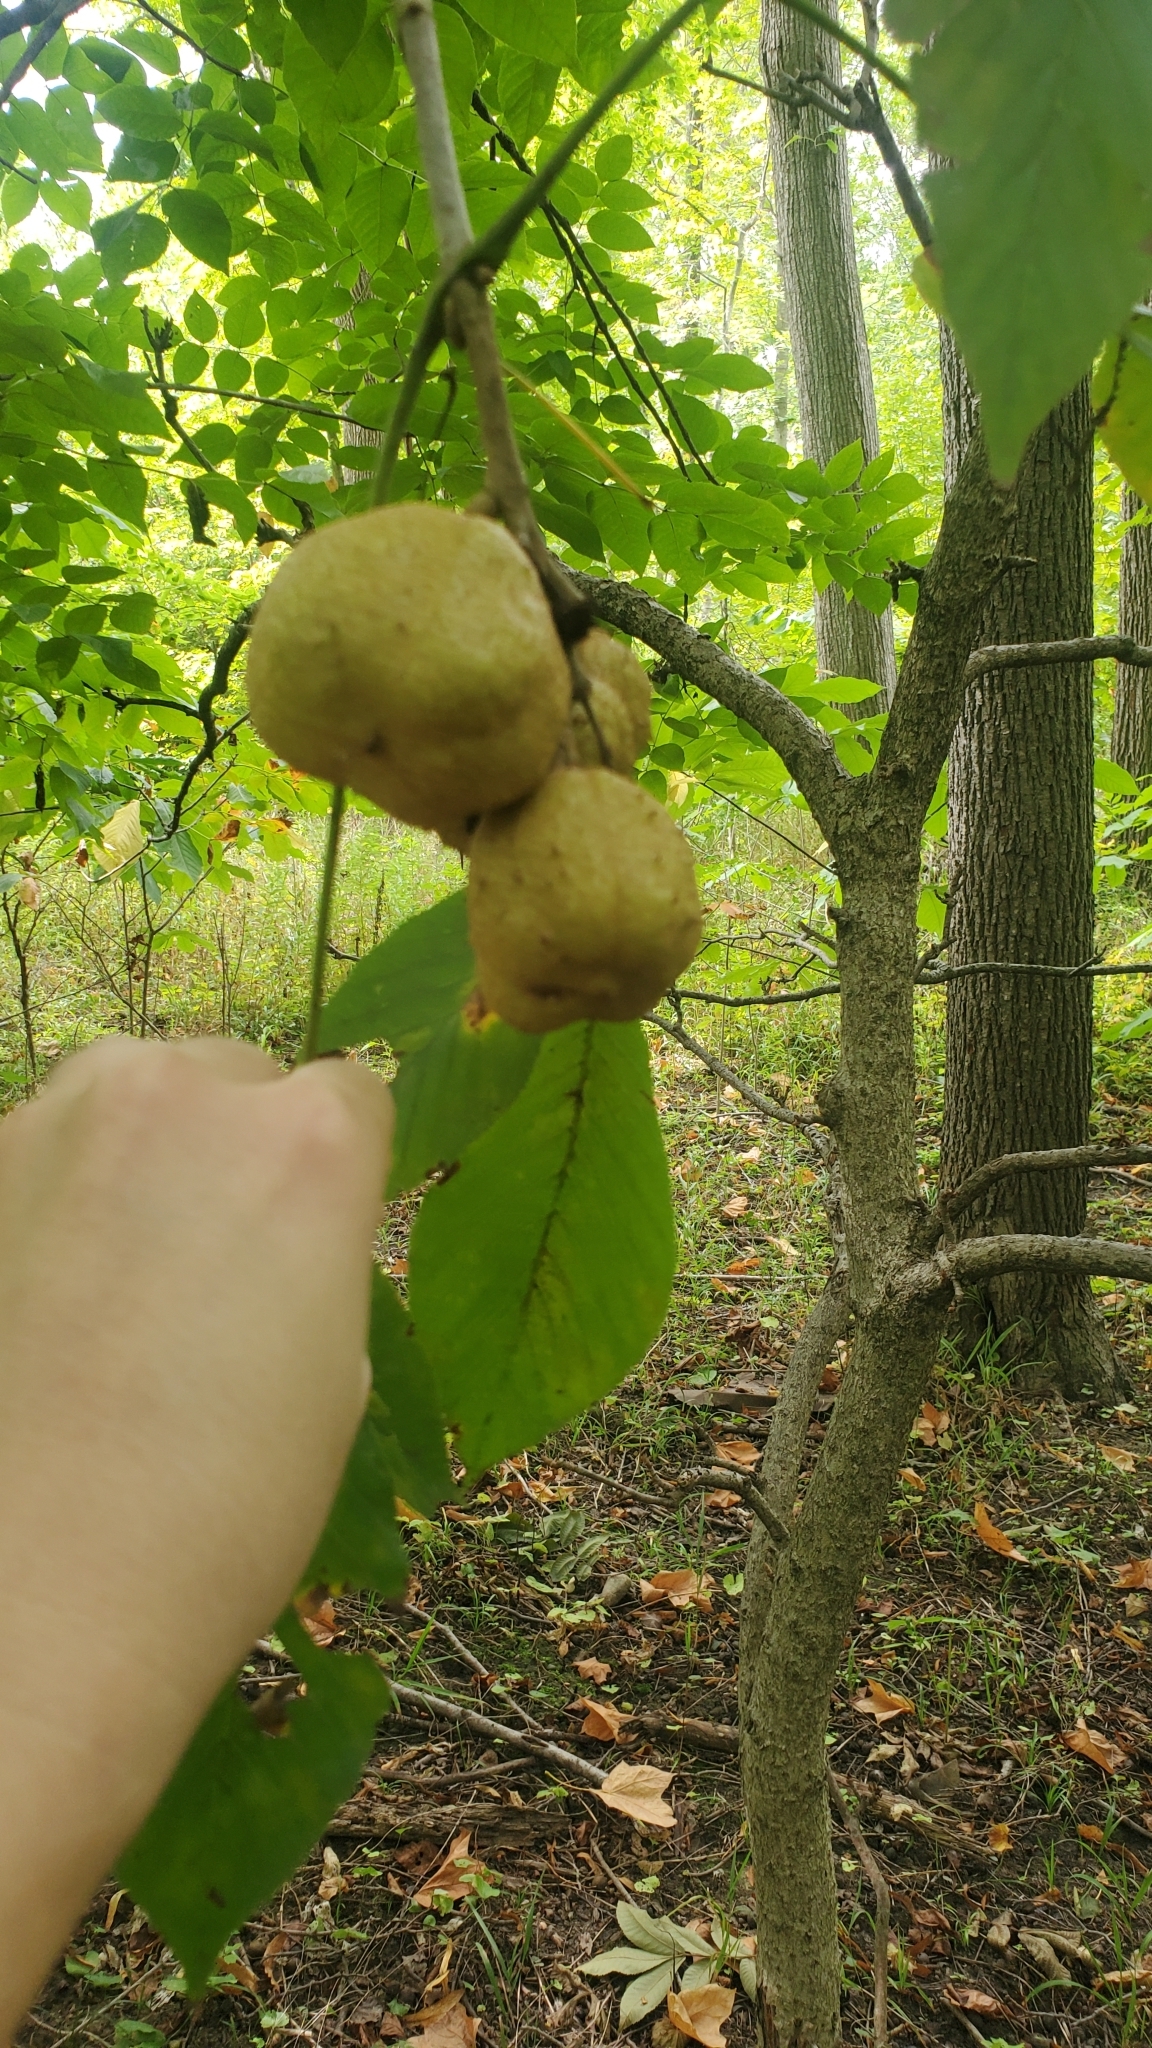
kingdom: Plantae
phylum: Tracheophyta
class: Magnoliopsida
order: Sapindales
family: Sapindaceae
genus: Aesculus
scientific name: Aesculus glabra
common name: Ohio buckeye
